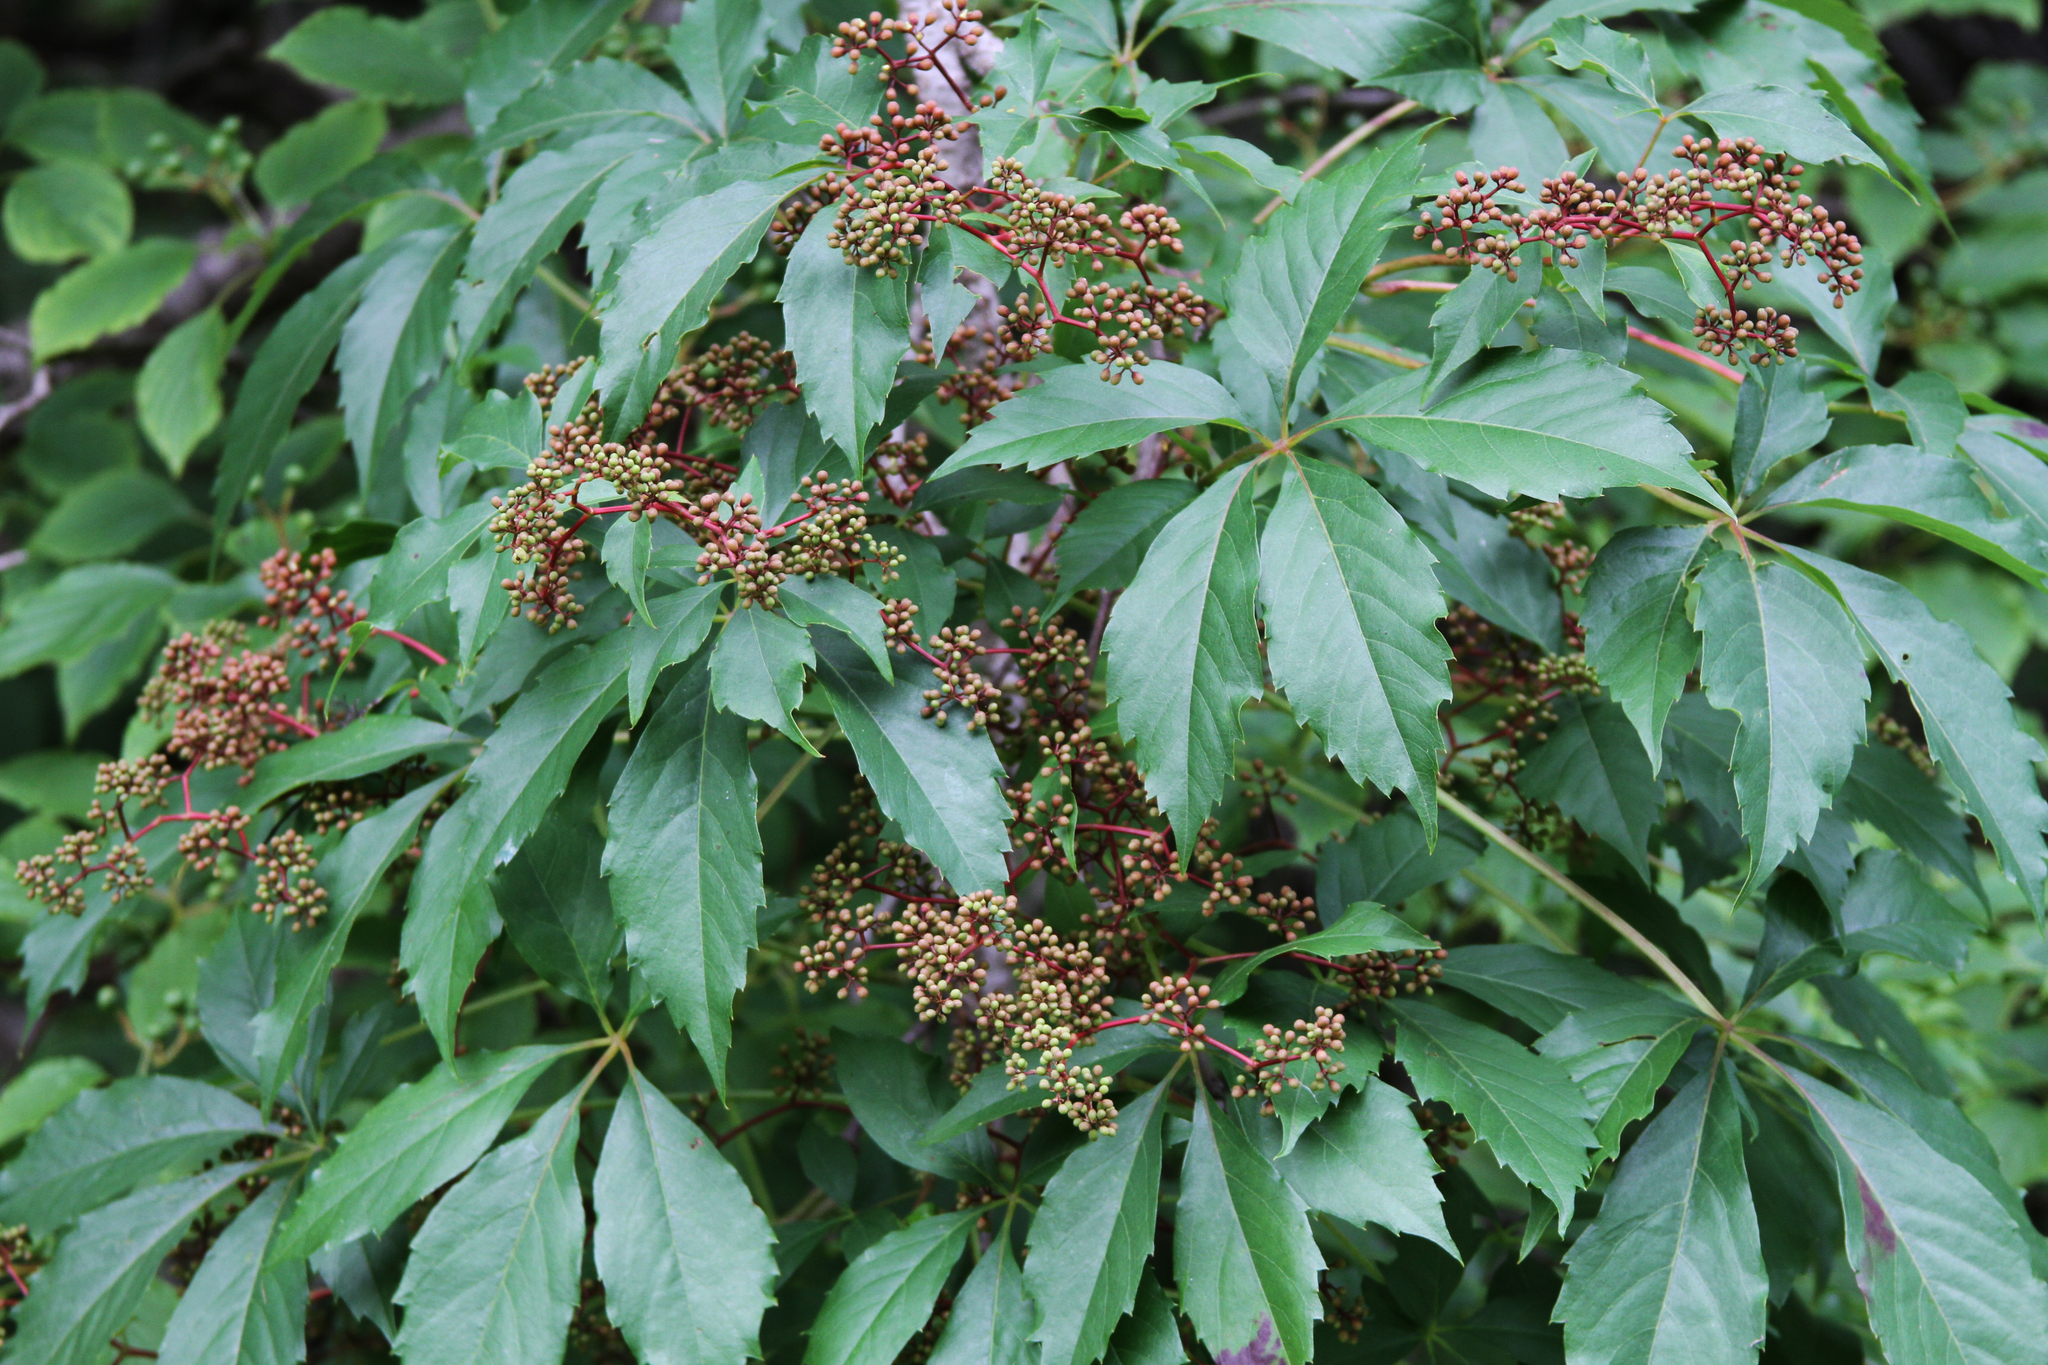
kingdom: Plantae
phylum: Tracheophyta
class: Magnoliopsida
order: Vitales
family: Vitaceae
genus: Parthenocissus
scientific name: Parthenocissus quinquefolia
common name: Virginia-creeper
